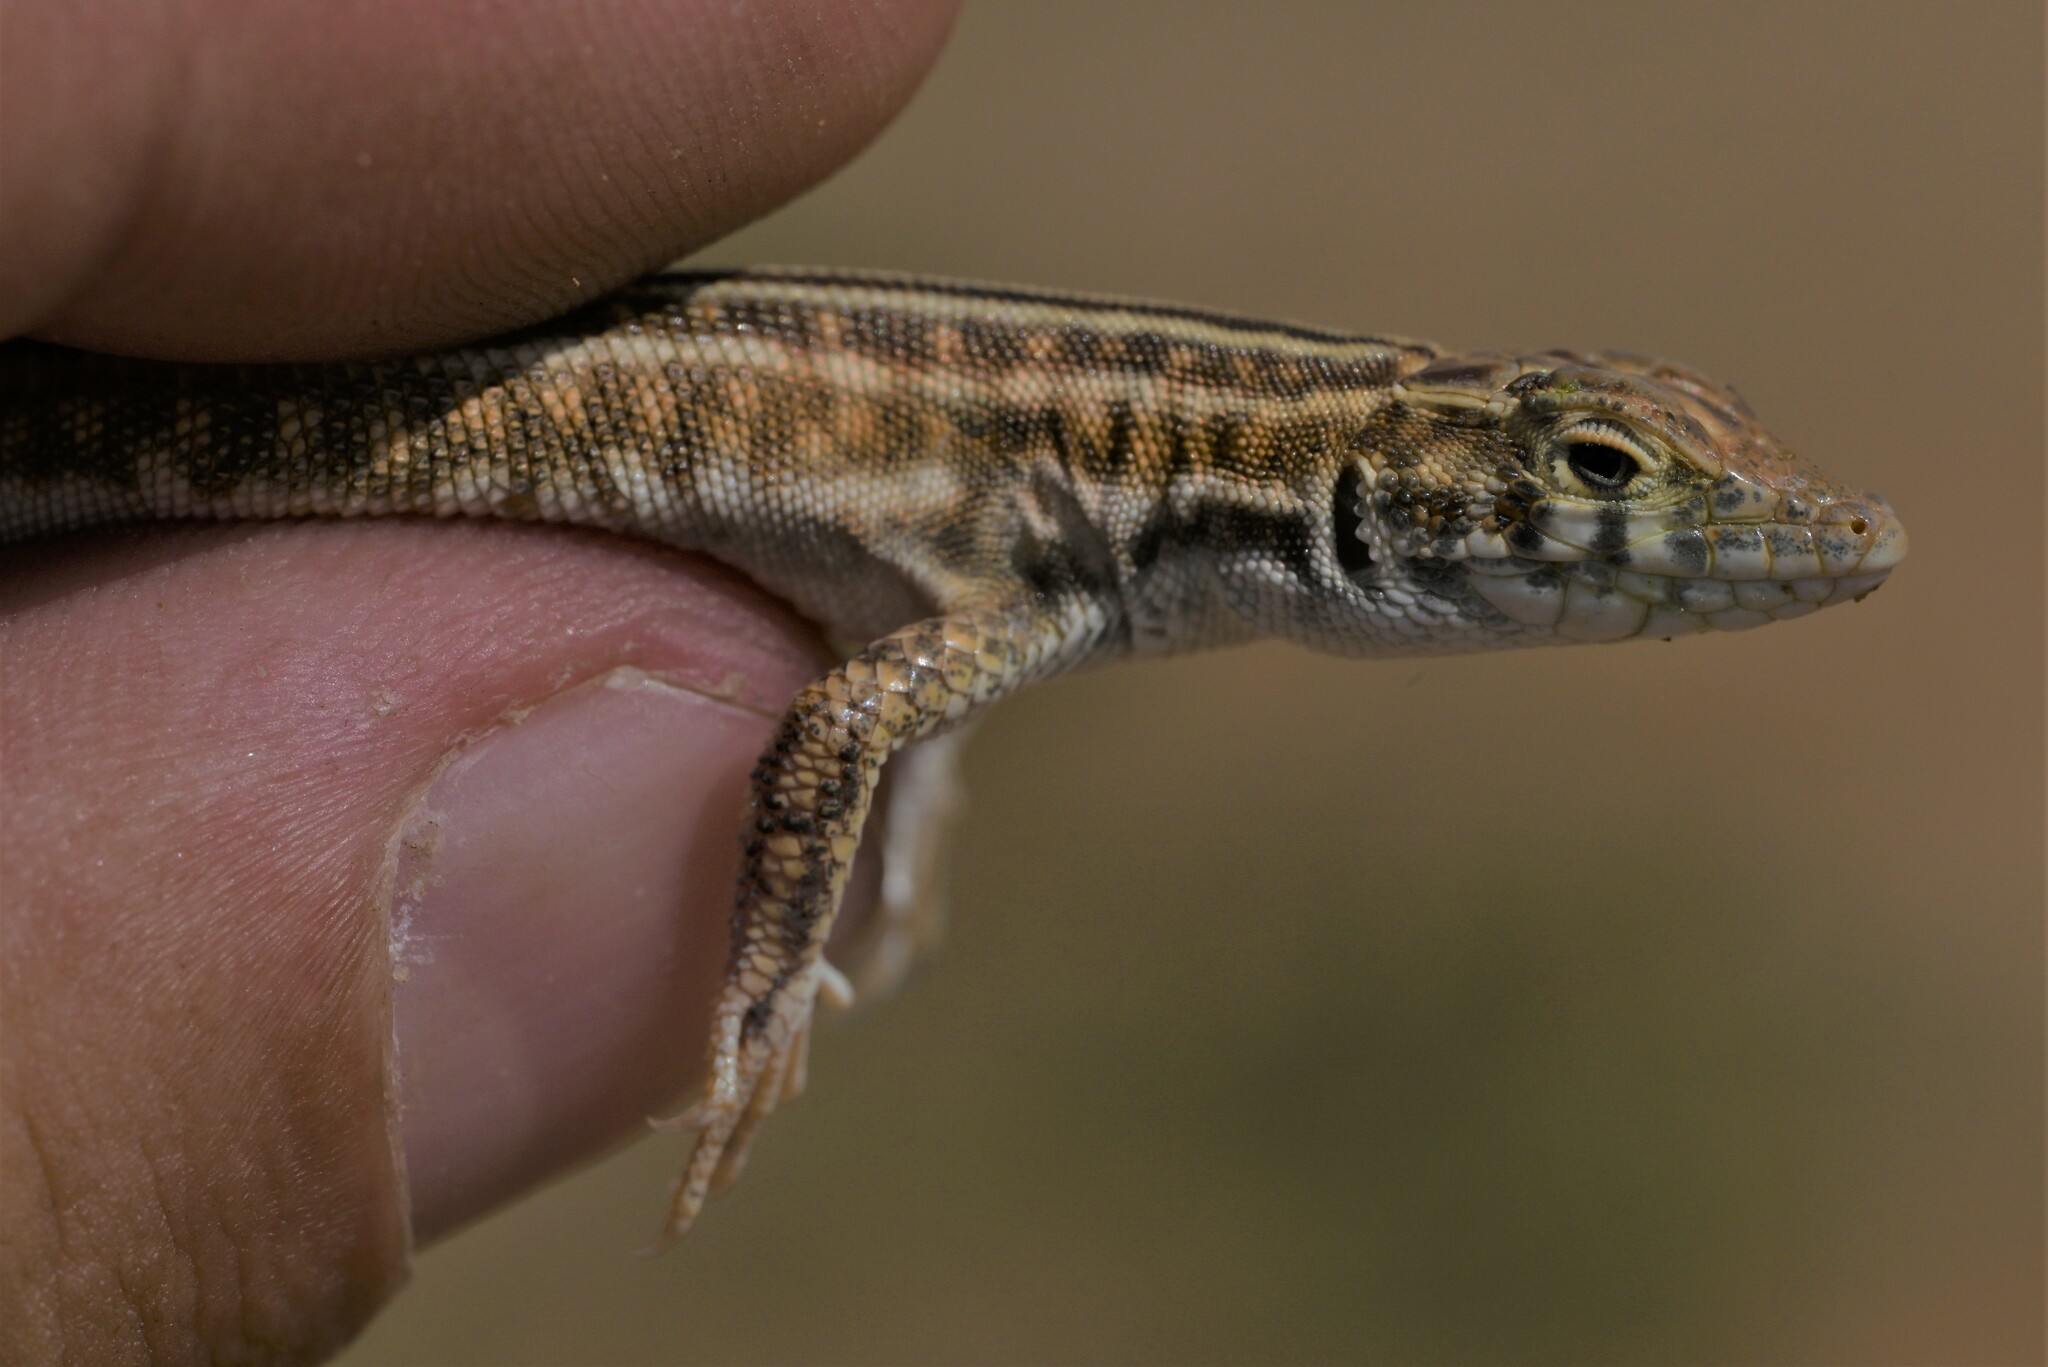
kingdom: Animalia
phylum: Chordata
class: Squamata
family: Lacertidae
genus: Acanthodactylus
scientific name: Acanthodactylus opheodurus
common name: Arnold's fringe-fingered lizard
